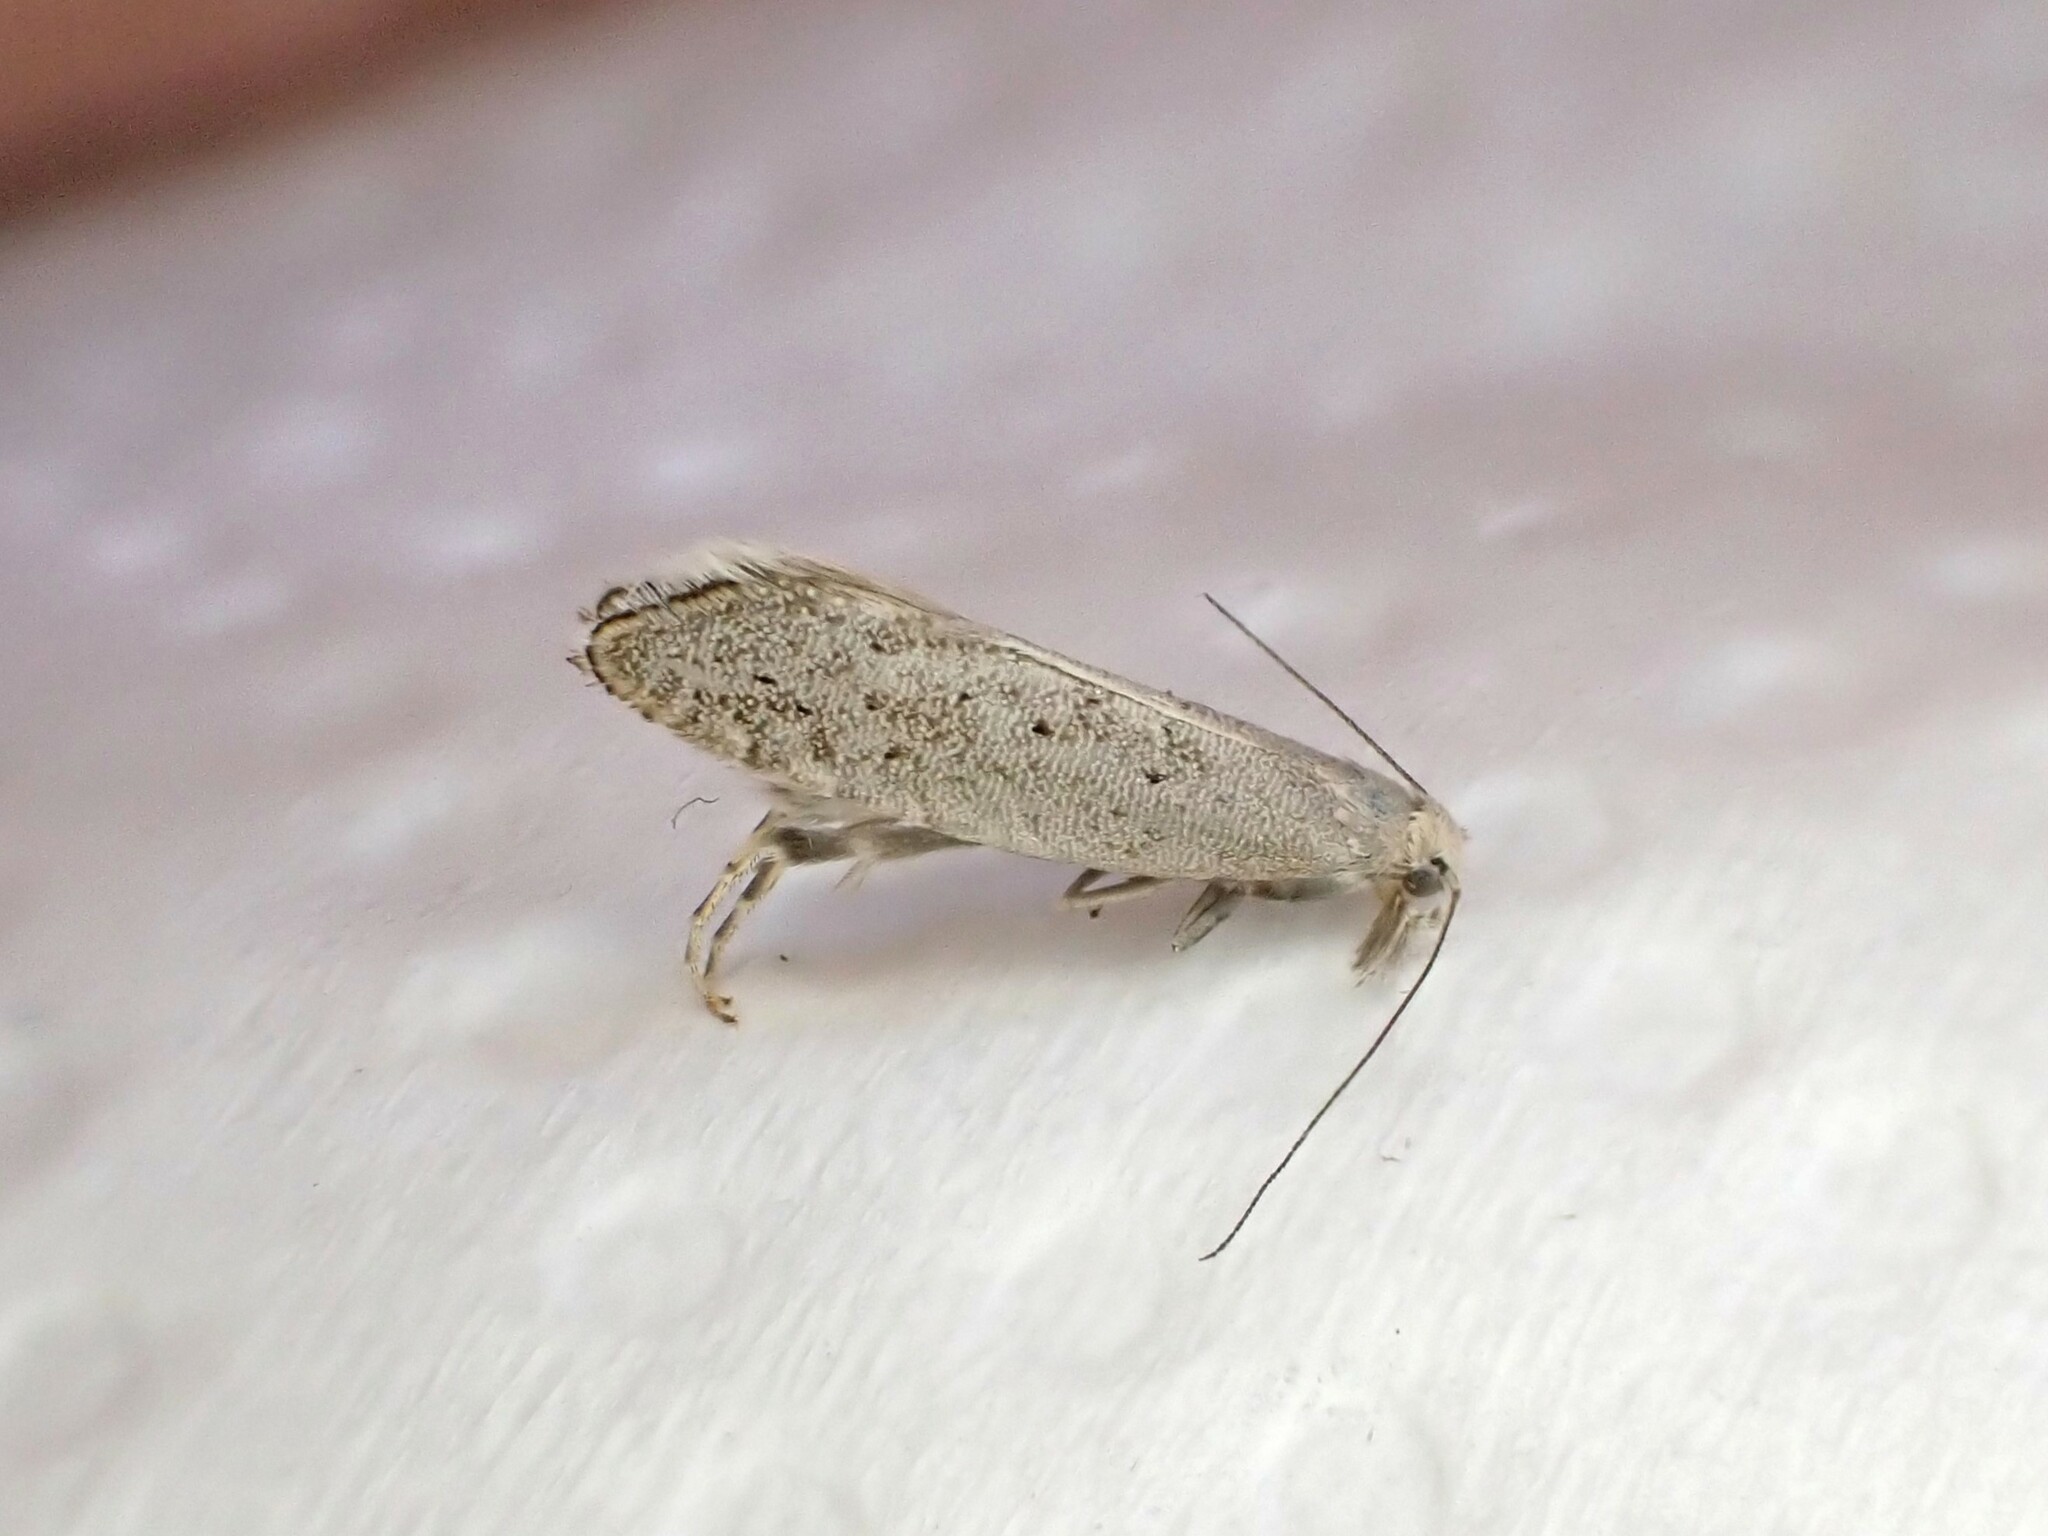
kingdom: Animalia
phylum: Arthropoda
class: Insecta
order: Lepidoptera
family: Glyphipterigidae
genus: Glyphipterix
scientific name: Glyphipterix achlyoessa
